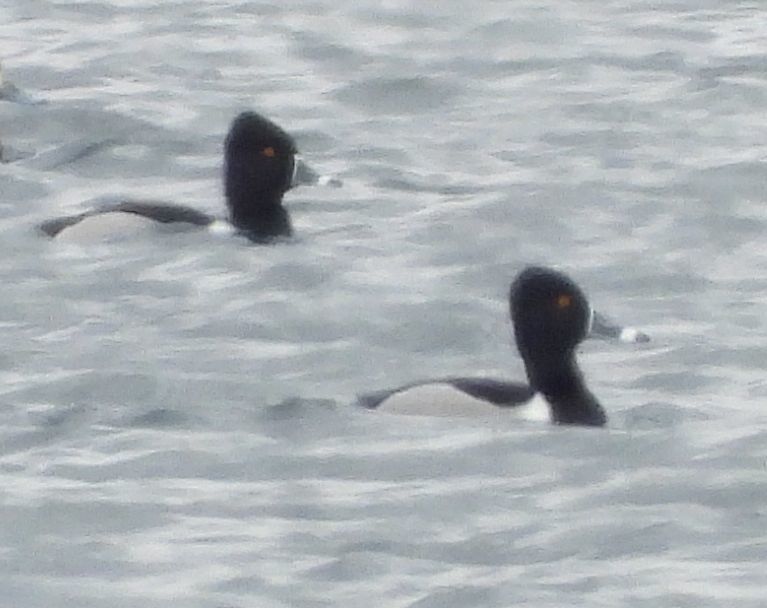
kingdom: Animalia
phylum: Chordata
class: Aves
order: Anseriformes
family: Anatidae
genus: Aythya
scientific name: Aythya collaris
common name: Ring-necked duck
